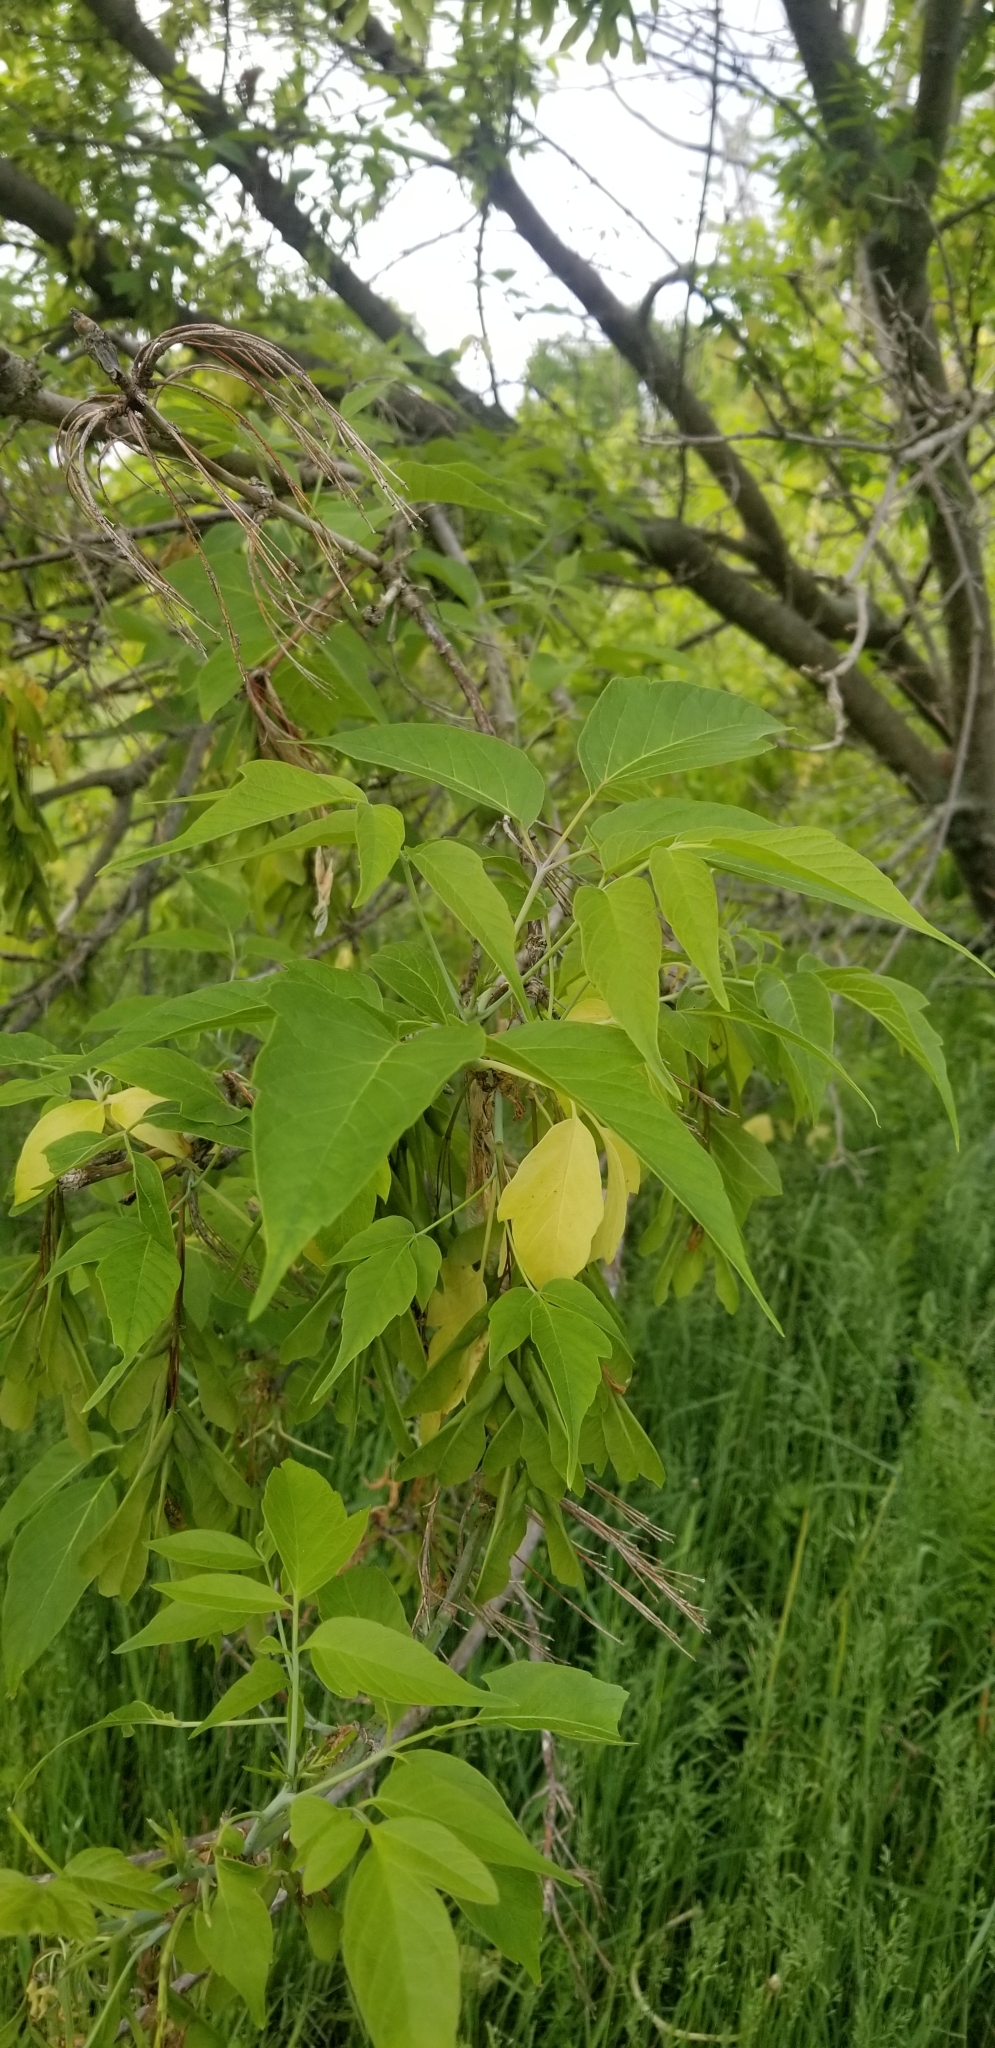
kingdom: Plantae
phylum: Tracheophyta
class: Magnoliopsida
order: Sapindales
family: Sapindaceae
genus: Acer
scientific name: Acer negundo
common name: Ashleaf maple
